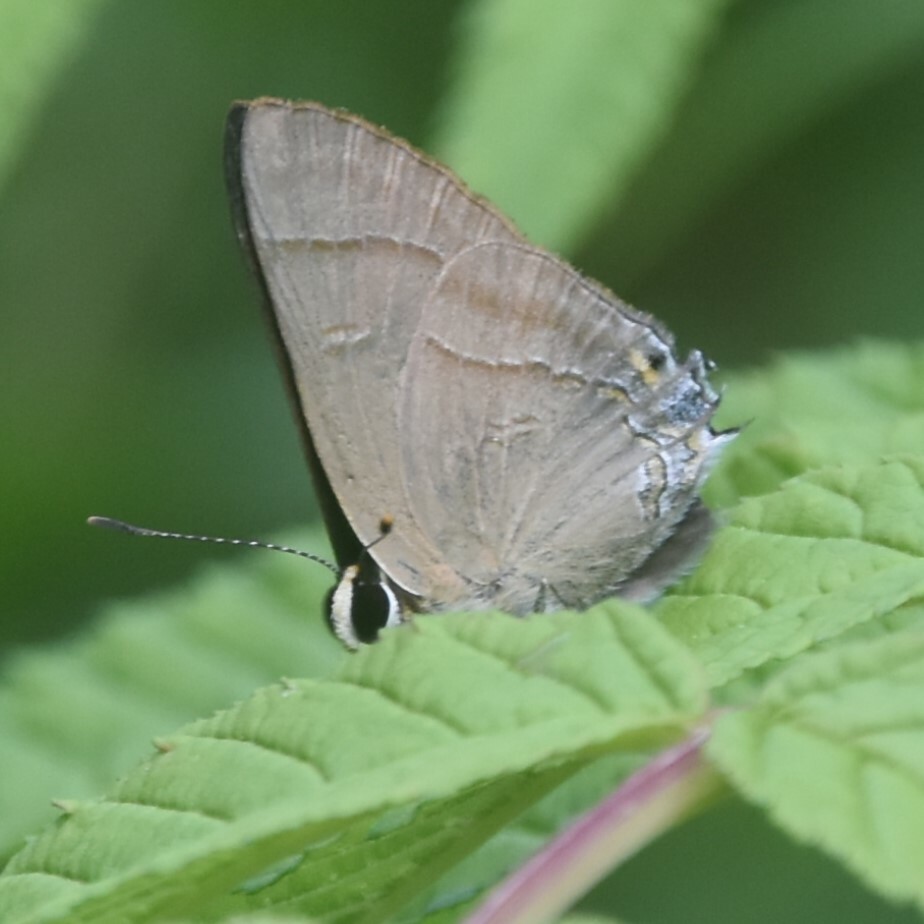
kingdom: Animalia
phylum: Arthropoda
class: Insecta
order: Lepidoptera
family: Lycaenidae
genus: Rapala
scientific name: Rapala nissa
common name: Common flash
